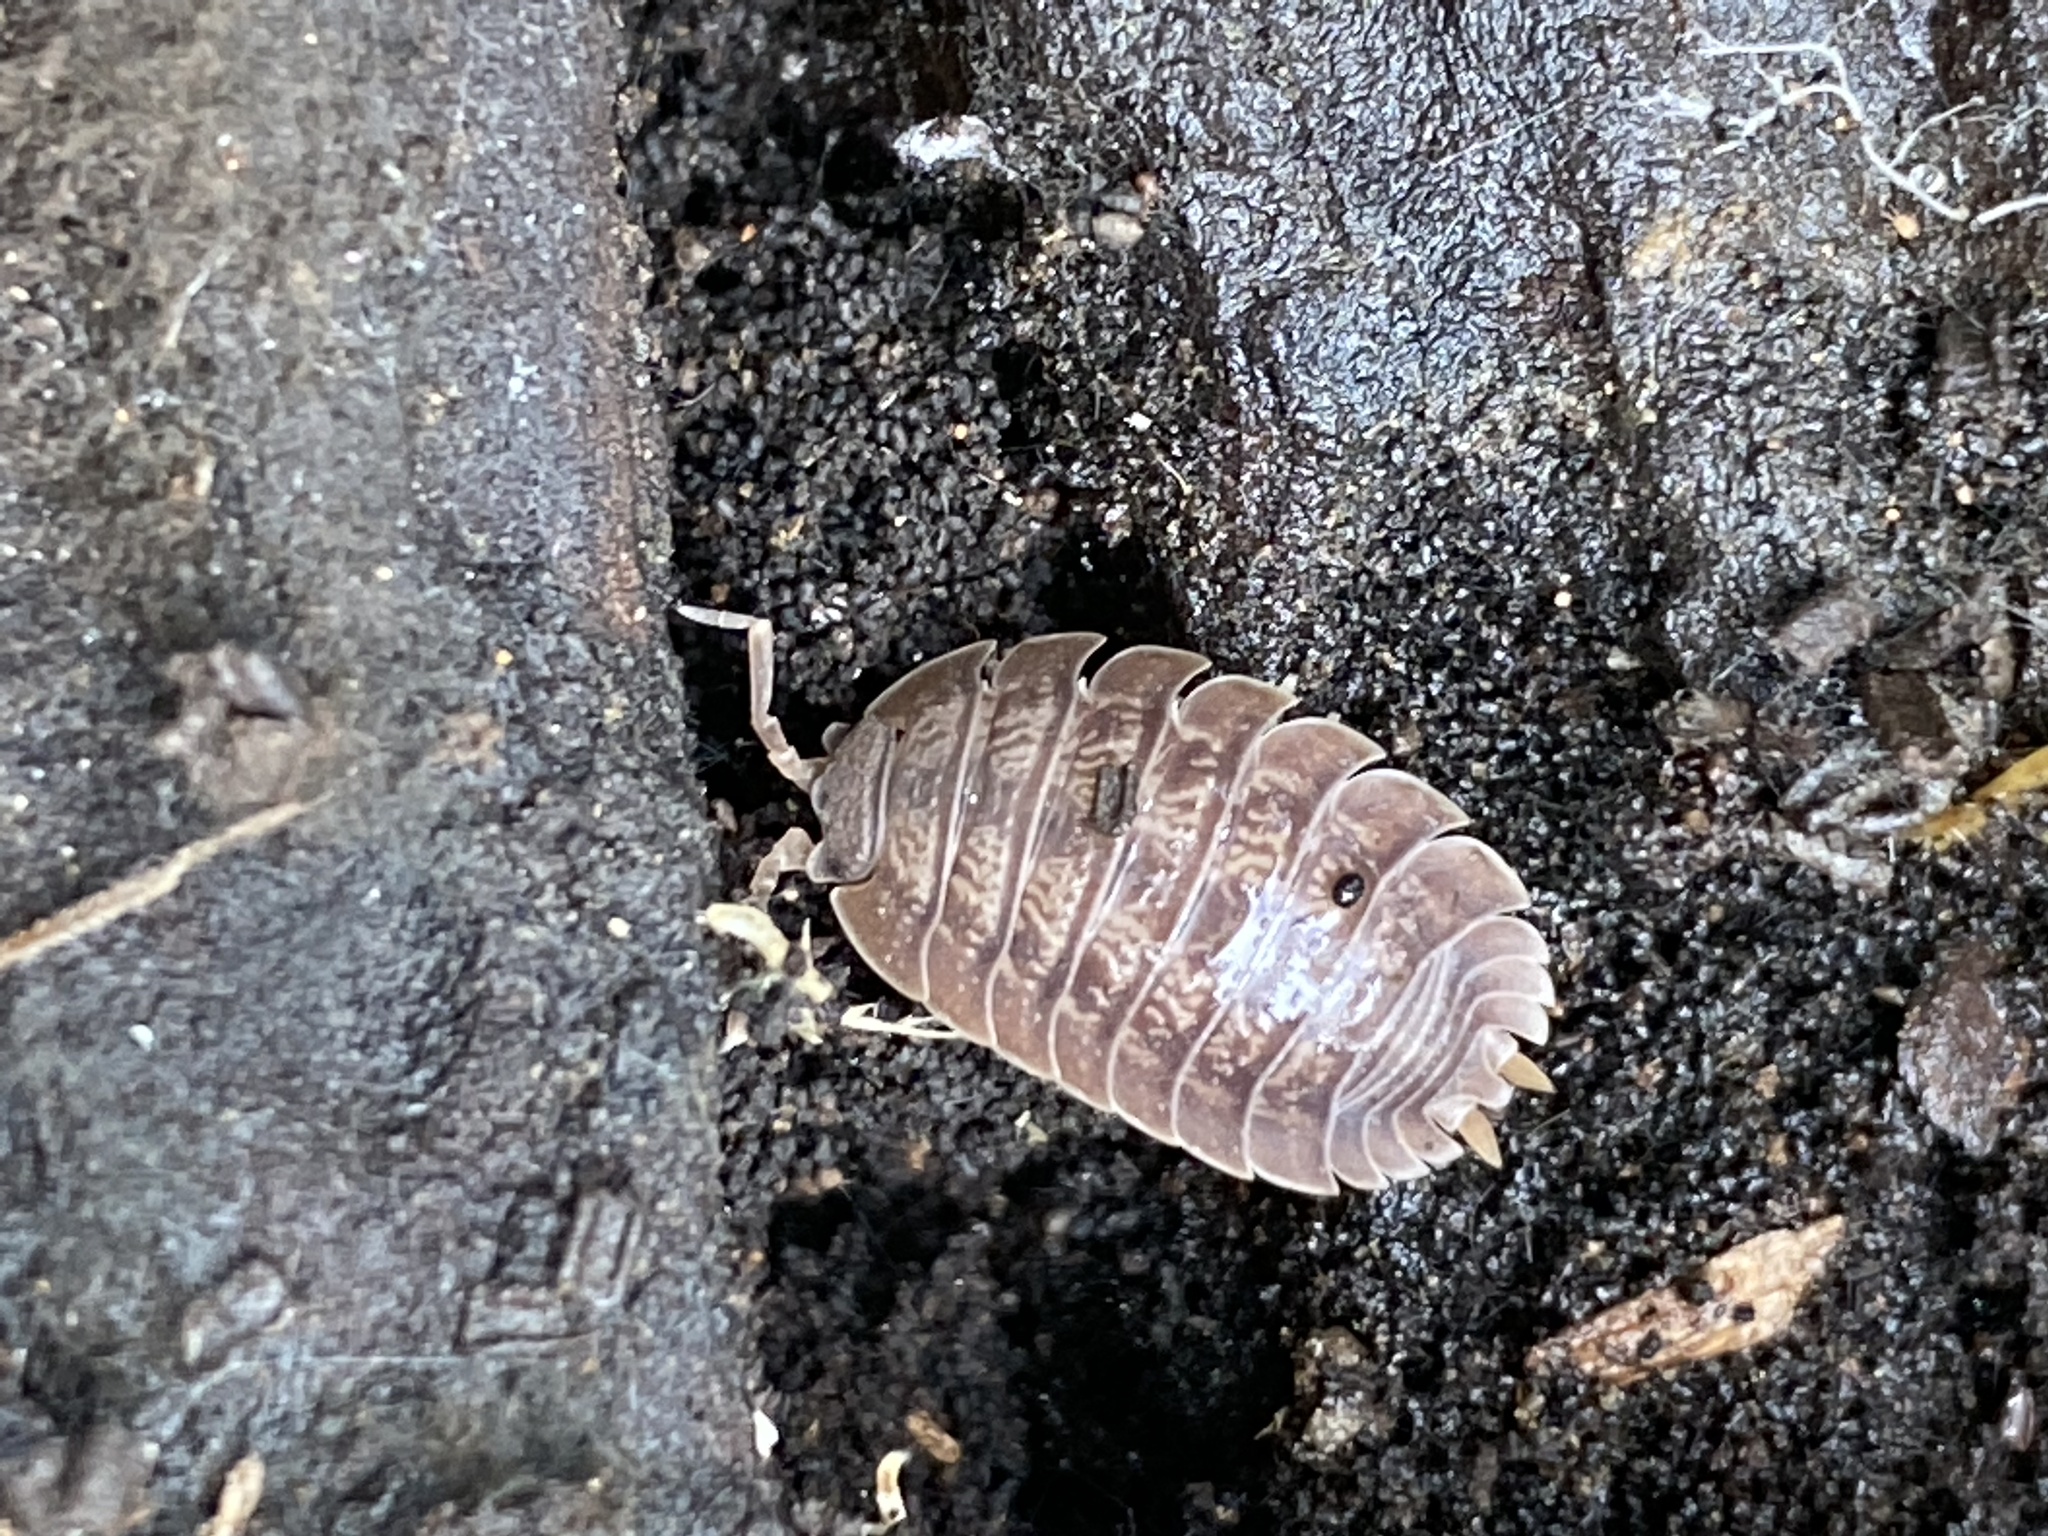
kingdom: Animalia
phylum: Arthropoda
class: Malacostraca
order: Isopoda
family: Porcellionidae
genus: Porcellio
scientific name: Porcellio dilatatus
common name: Isopod
